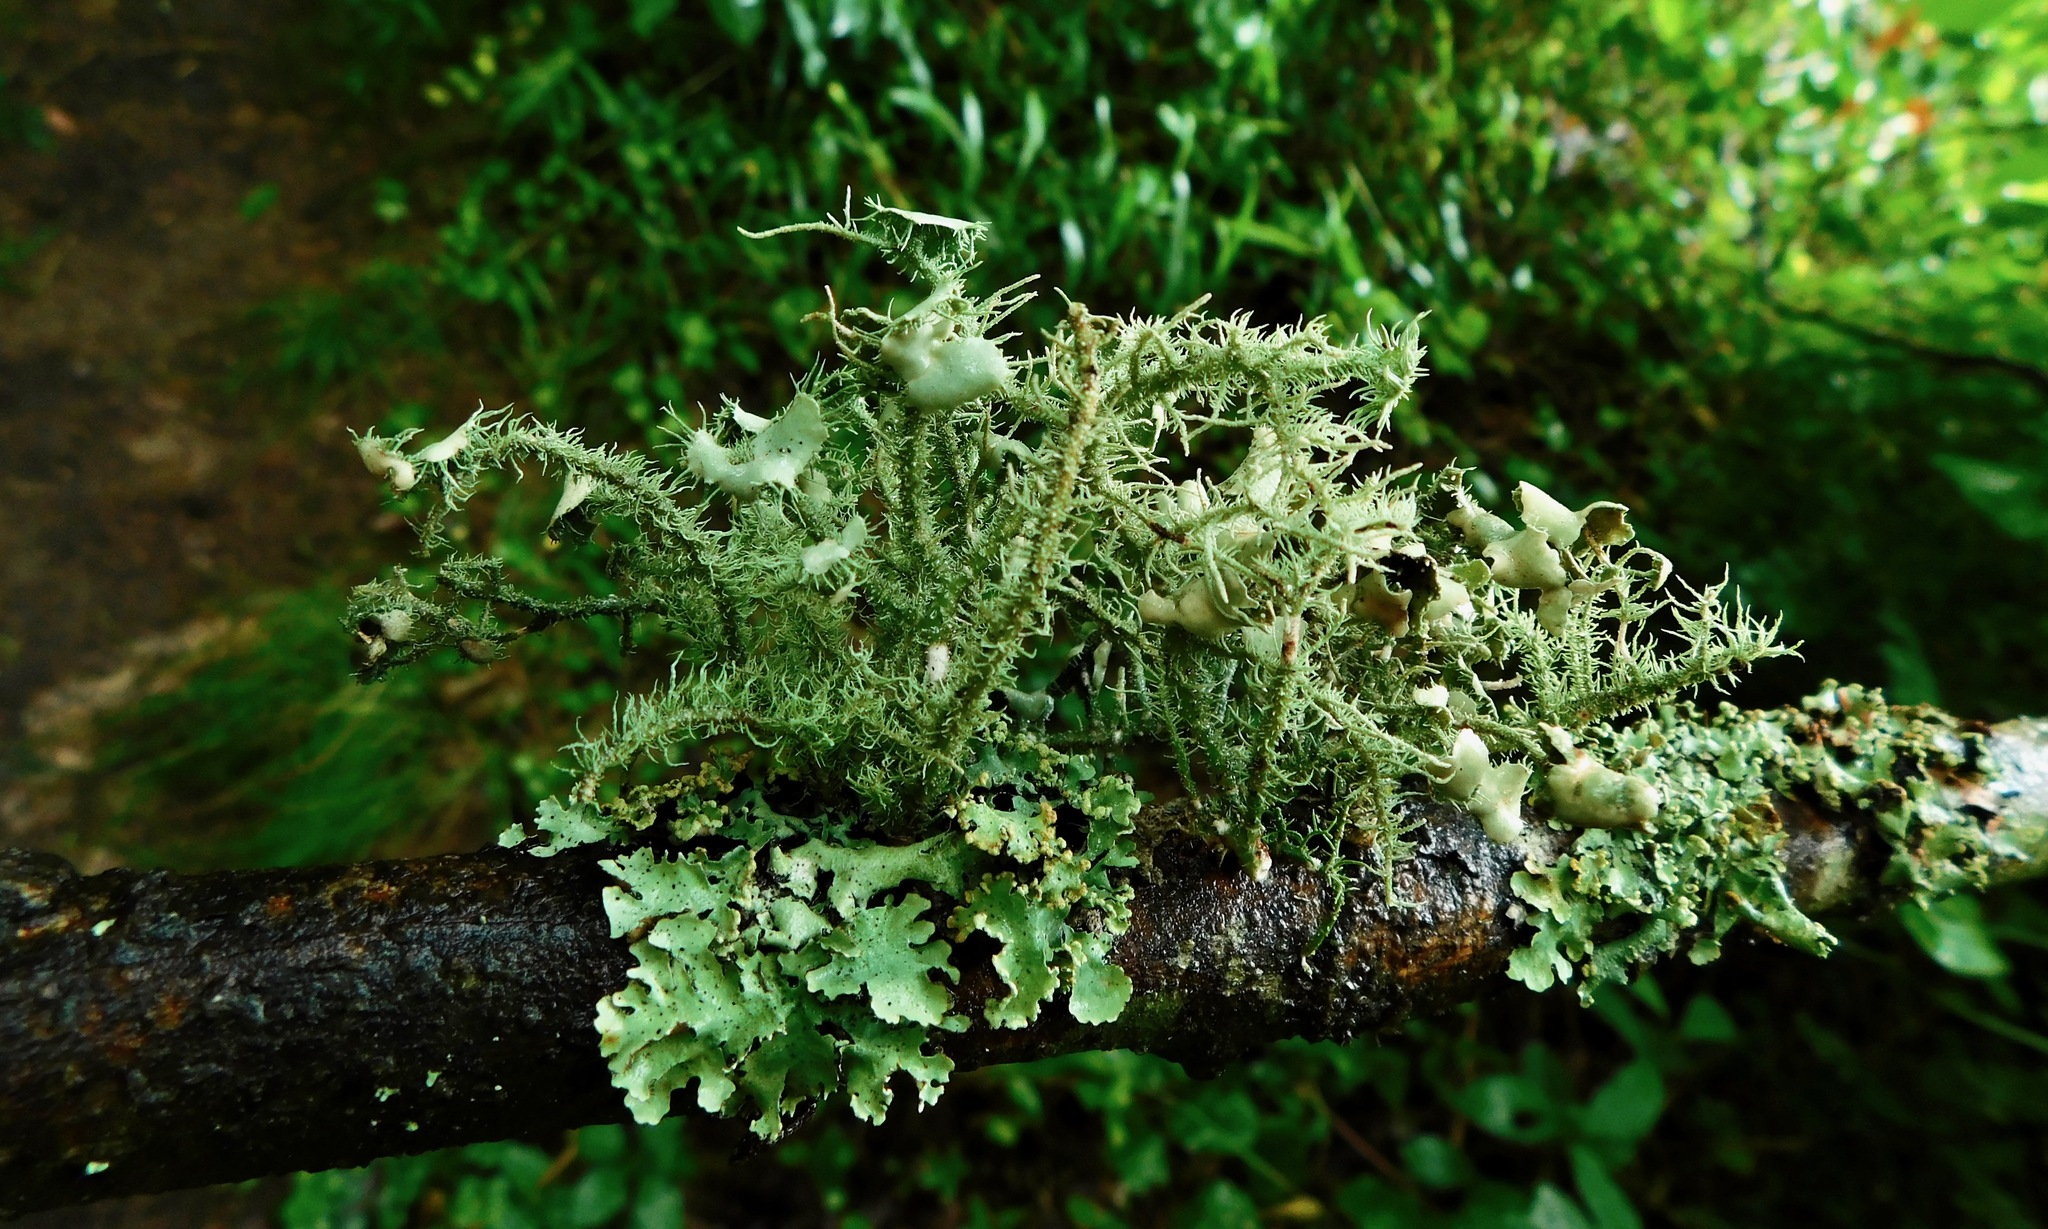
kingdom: Fungi
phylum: Ascomycota
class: Lecanoromycetes
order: Lecanorales
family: Parmeliaceae
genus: Usnea
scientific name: Usnea strigosa
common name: Bushy beard lichen
